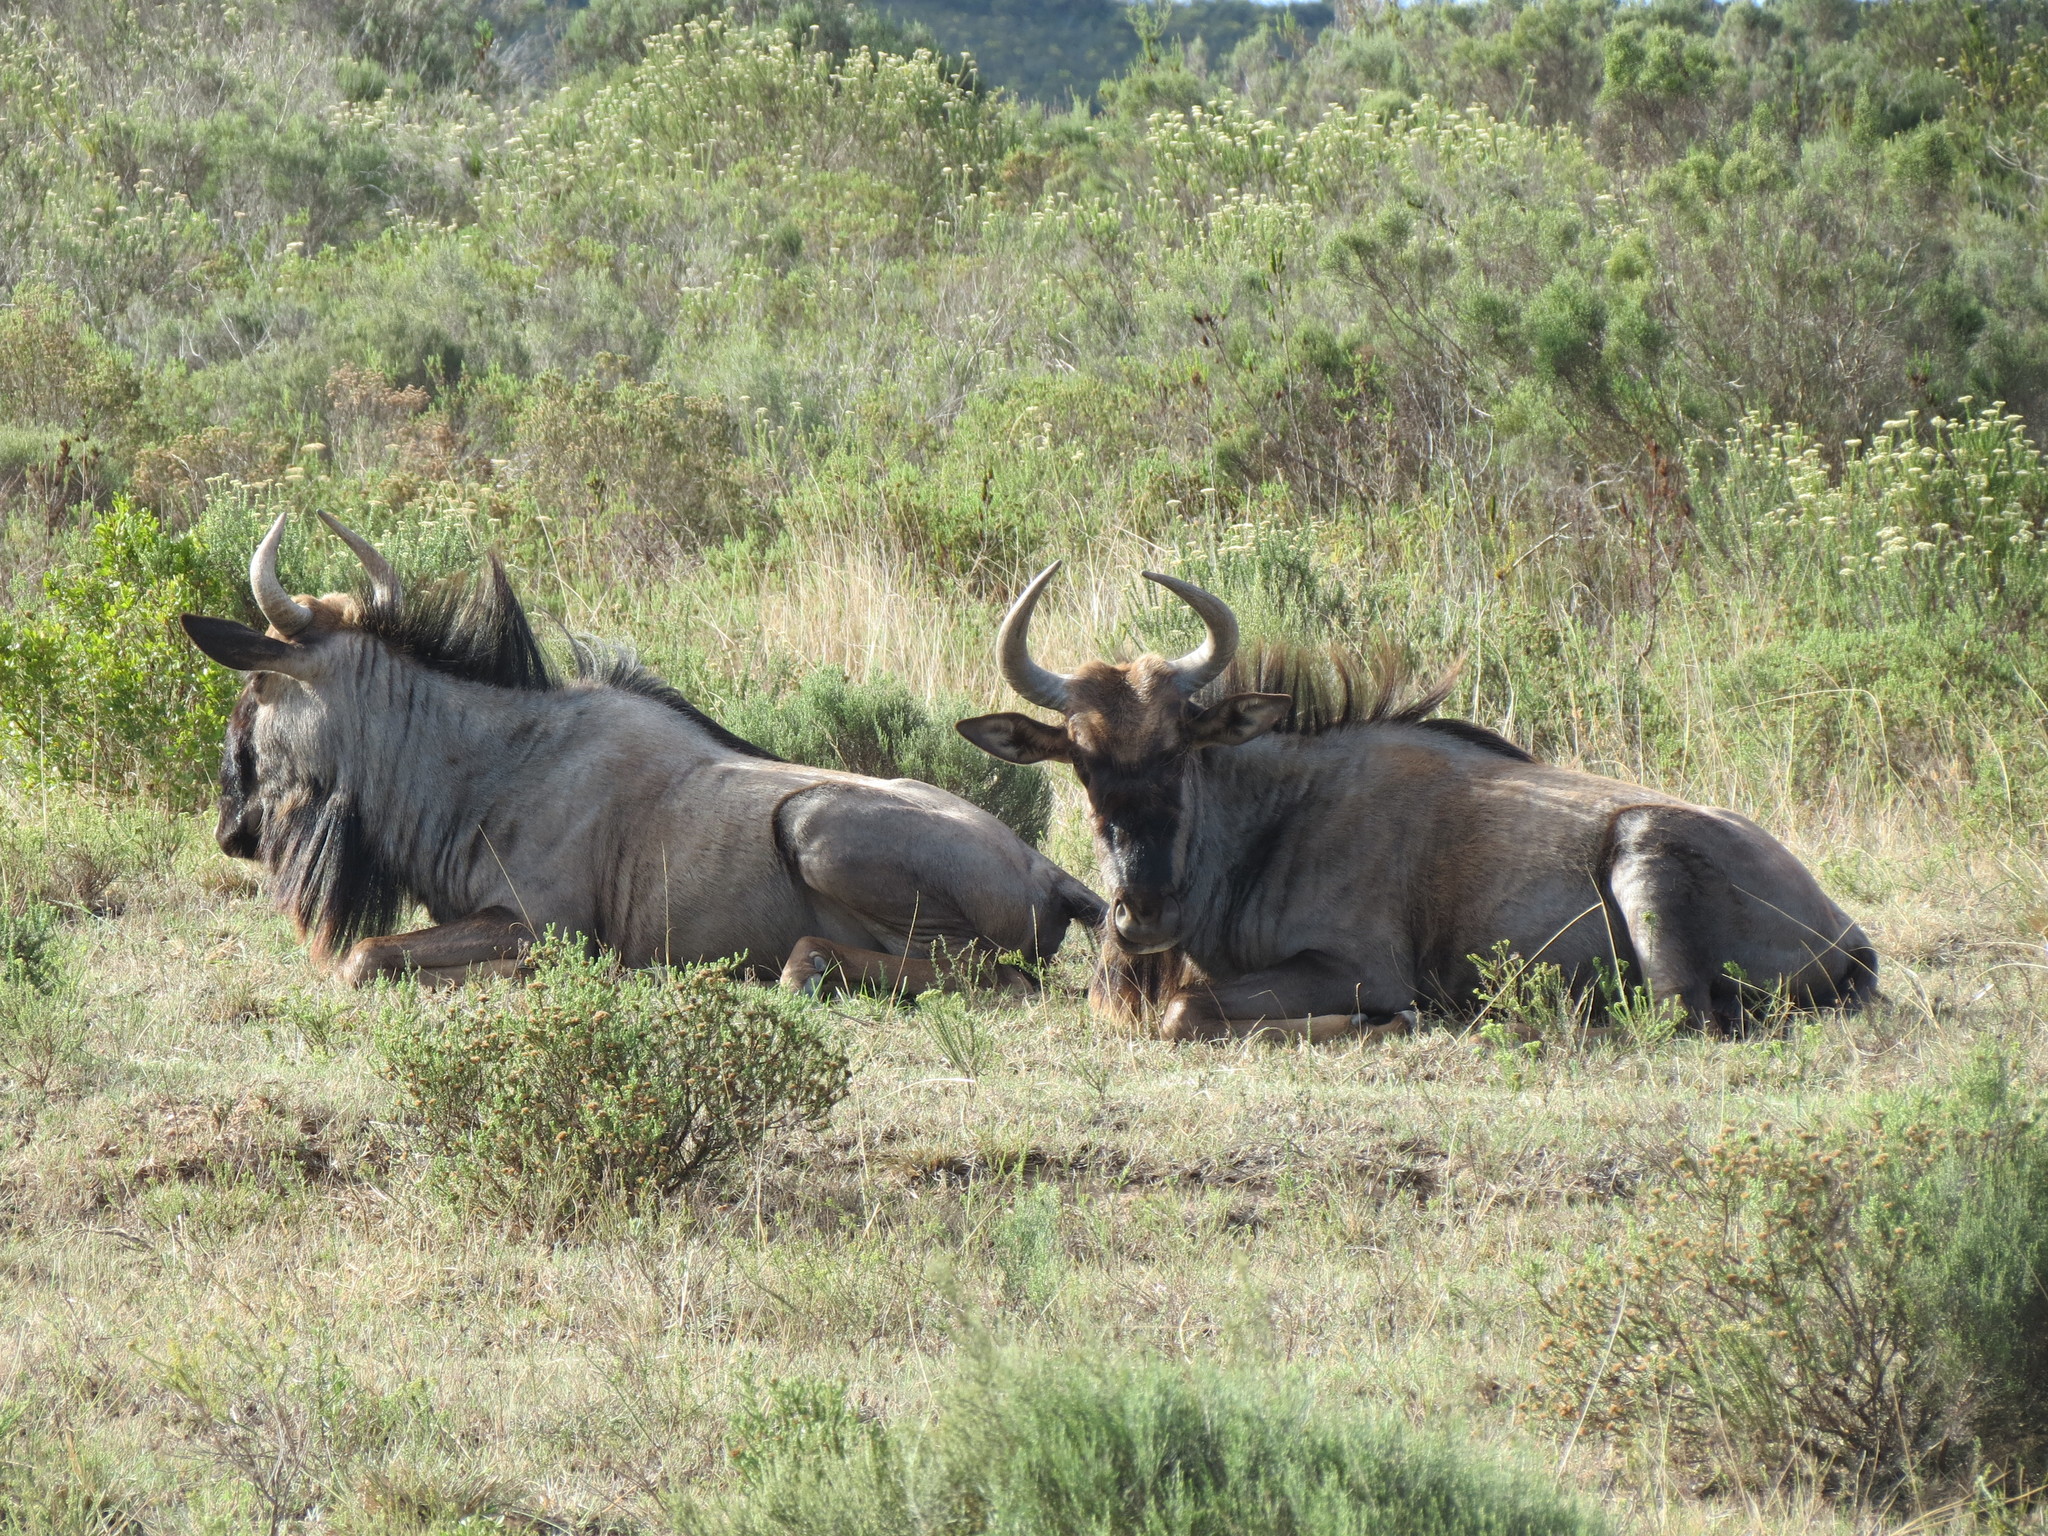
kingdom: Animalia
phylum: Chordata
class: Mammalia
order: Artiodactyla
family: Bovidae
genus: Connochaetes
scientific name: Connochaetes taurinus
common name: Blue wildebeest
